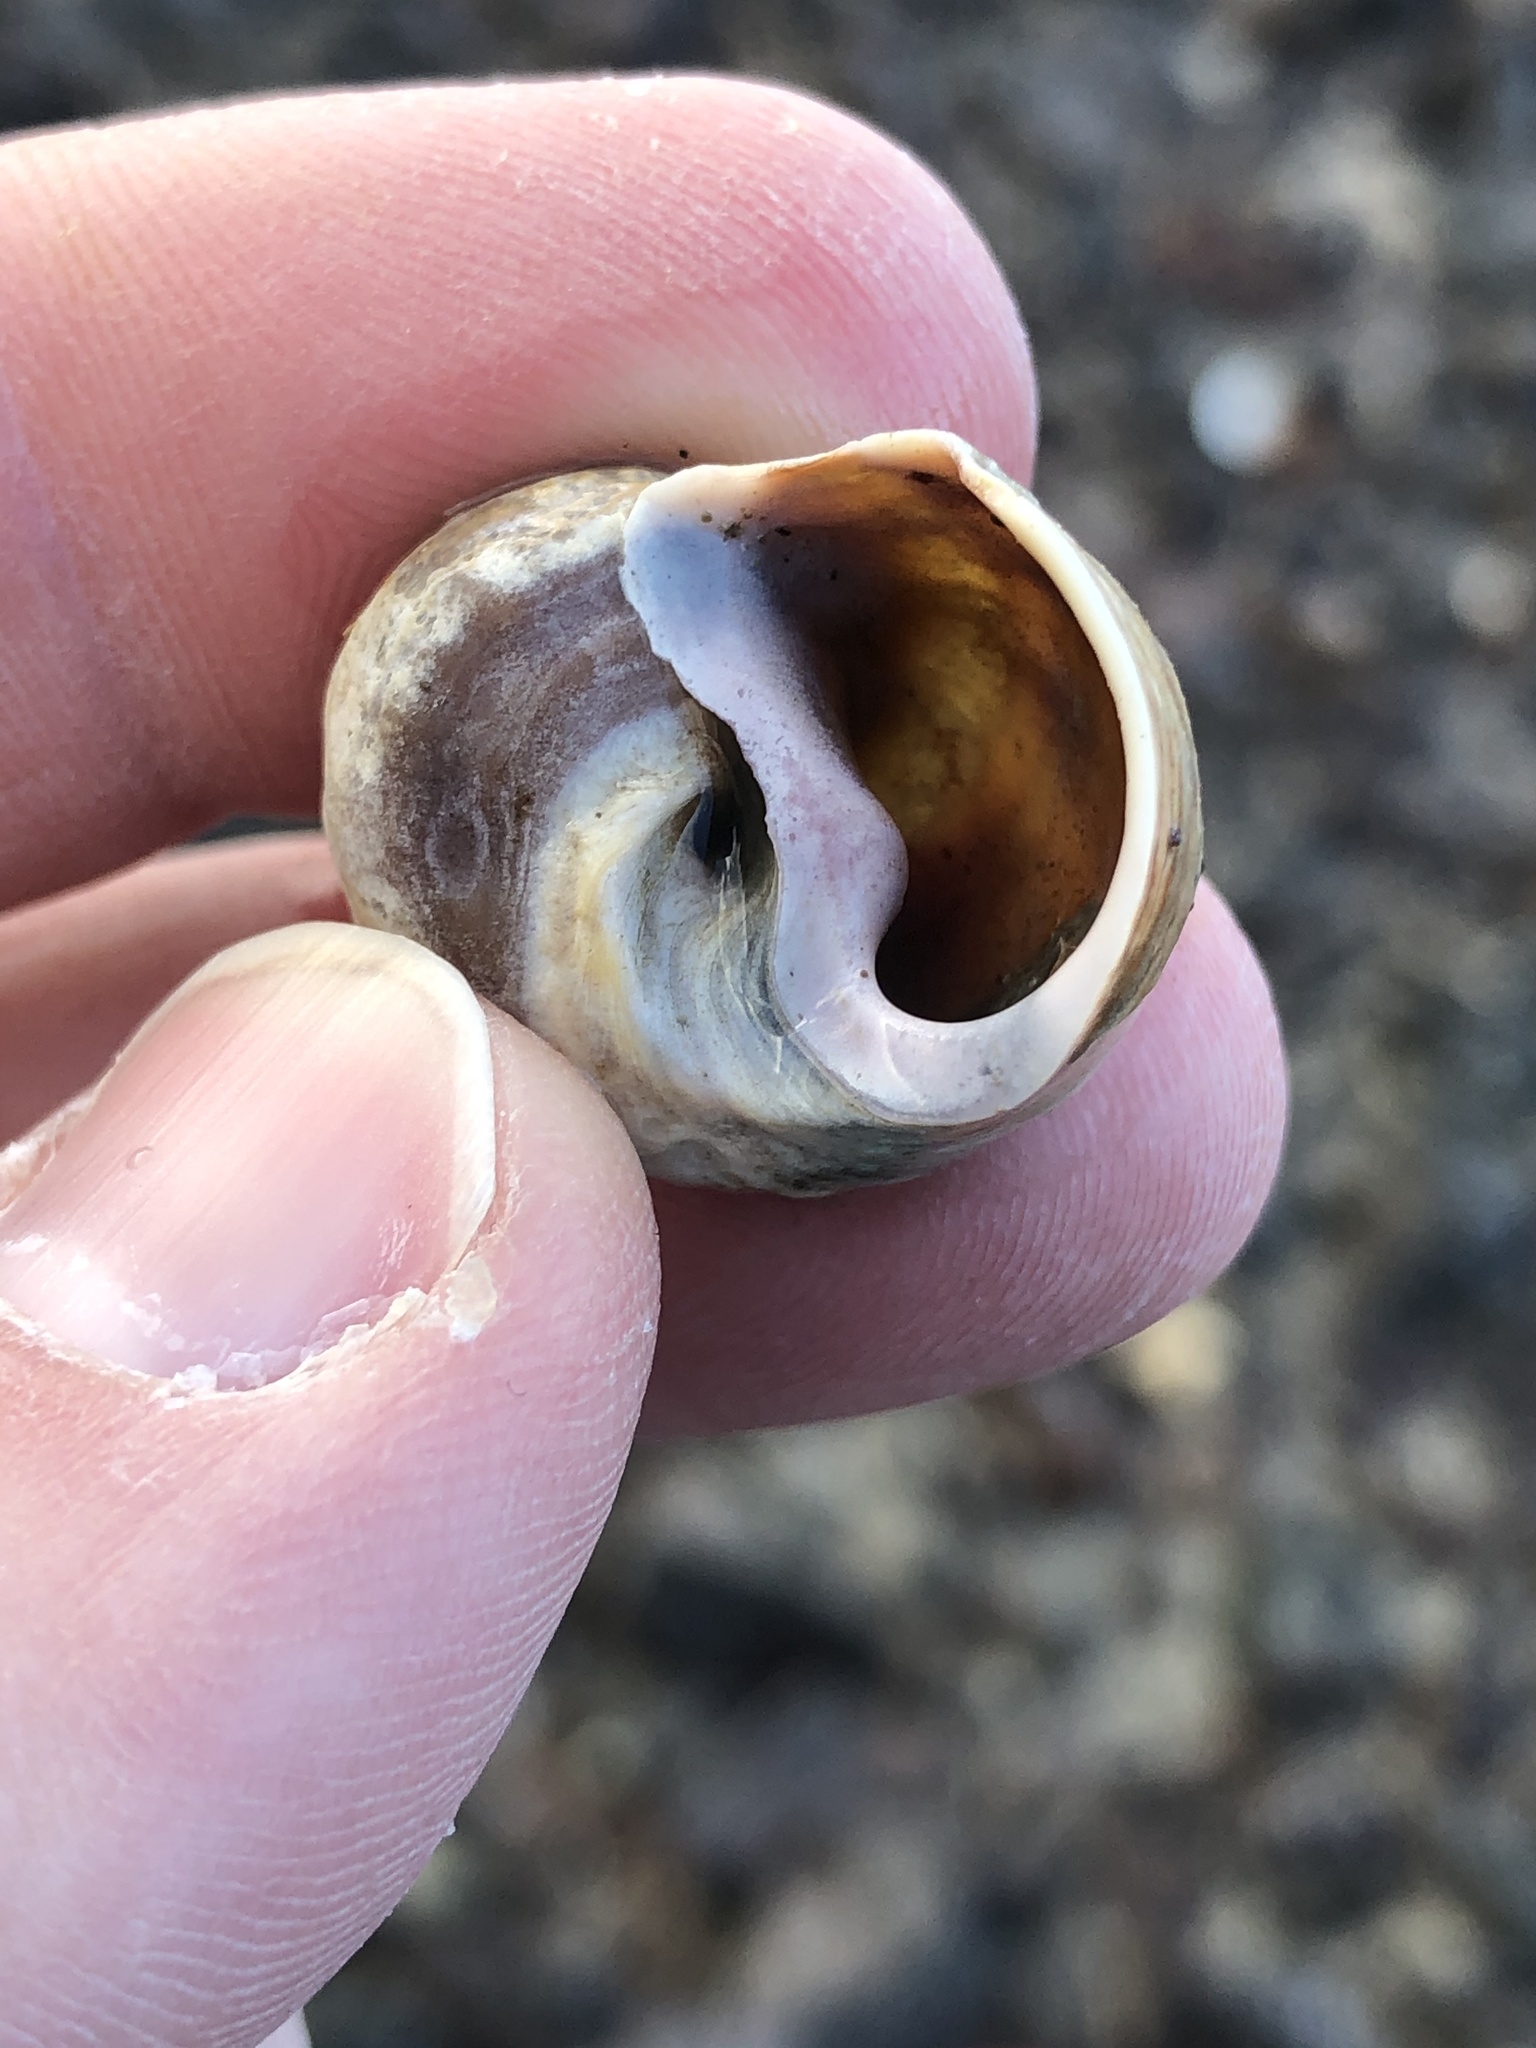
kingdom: Animalia
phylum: Mollusca
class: Gastropoda
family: Amphibolidae
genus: Amphibola
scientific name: Amphibola crenata
